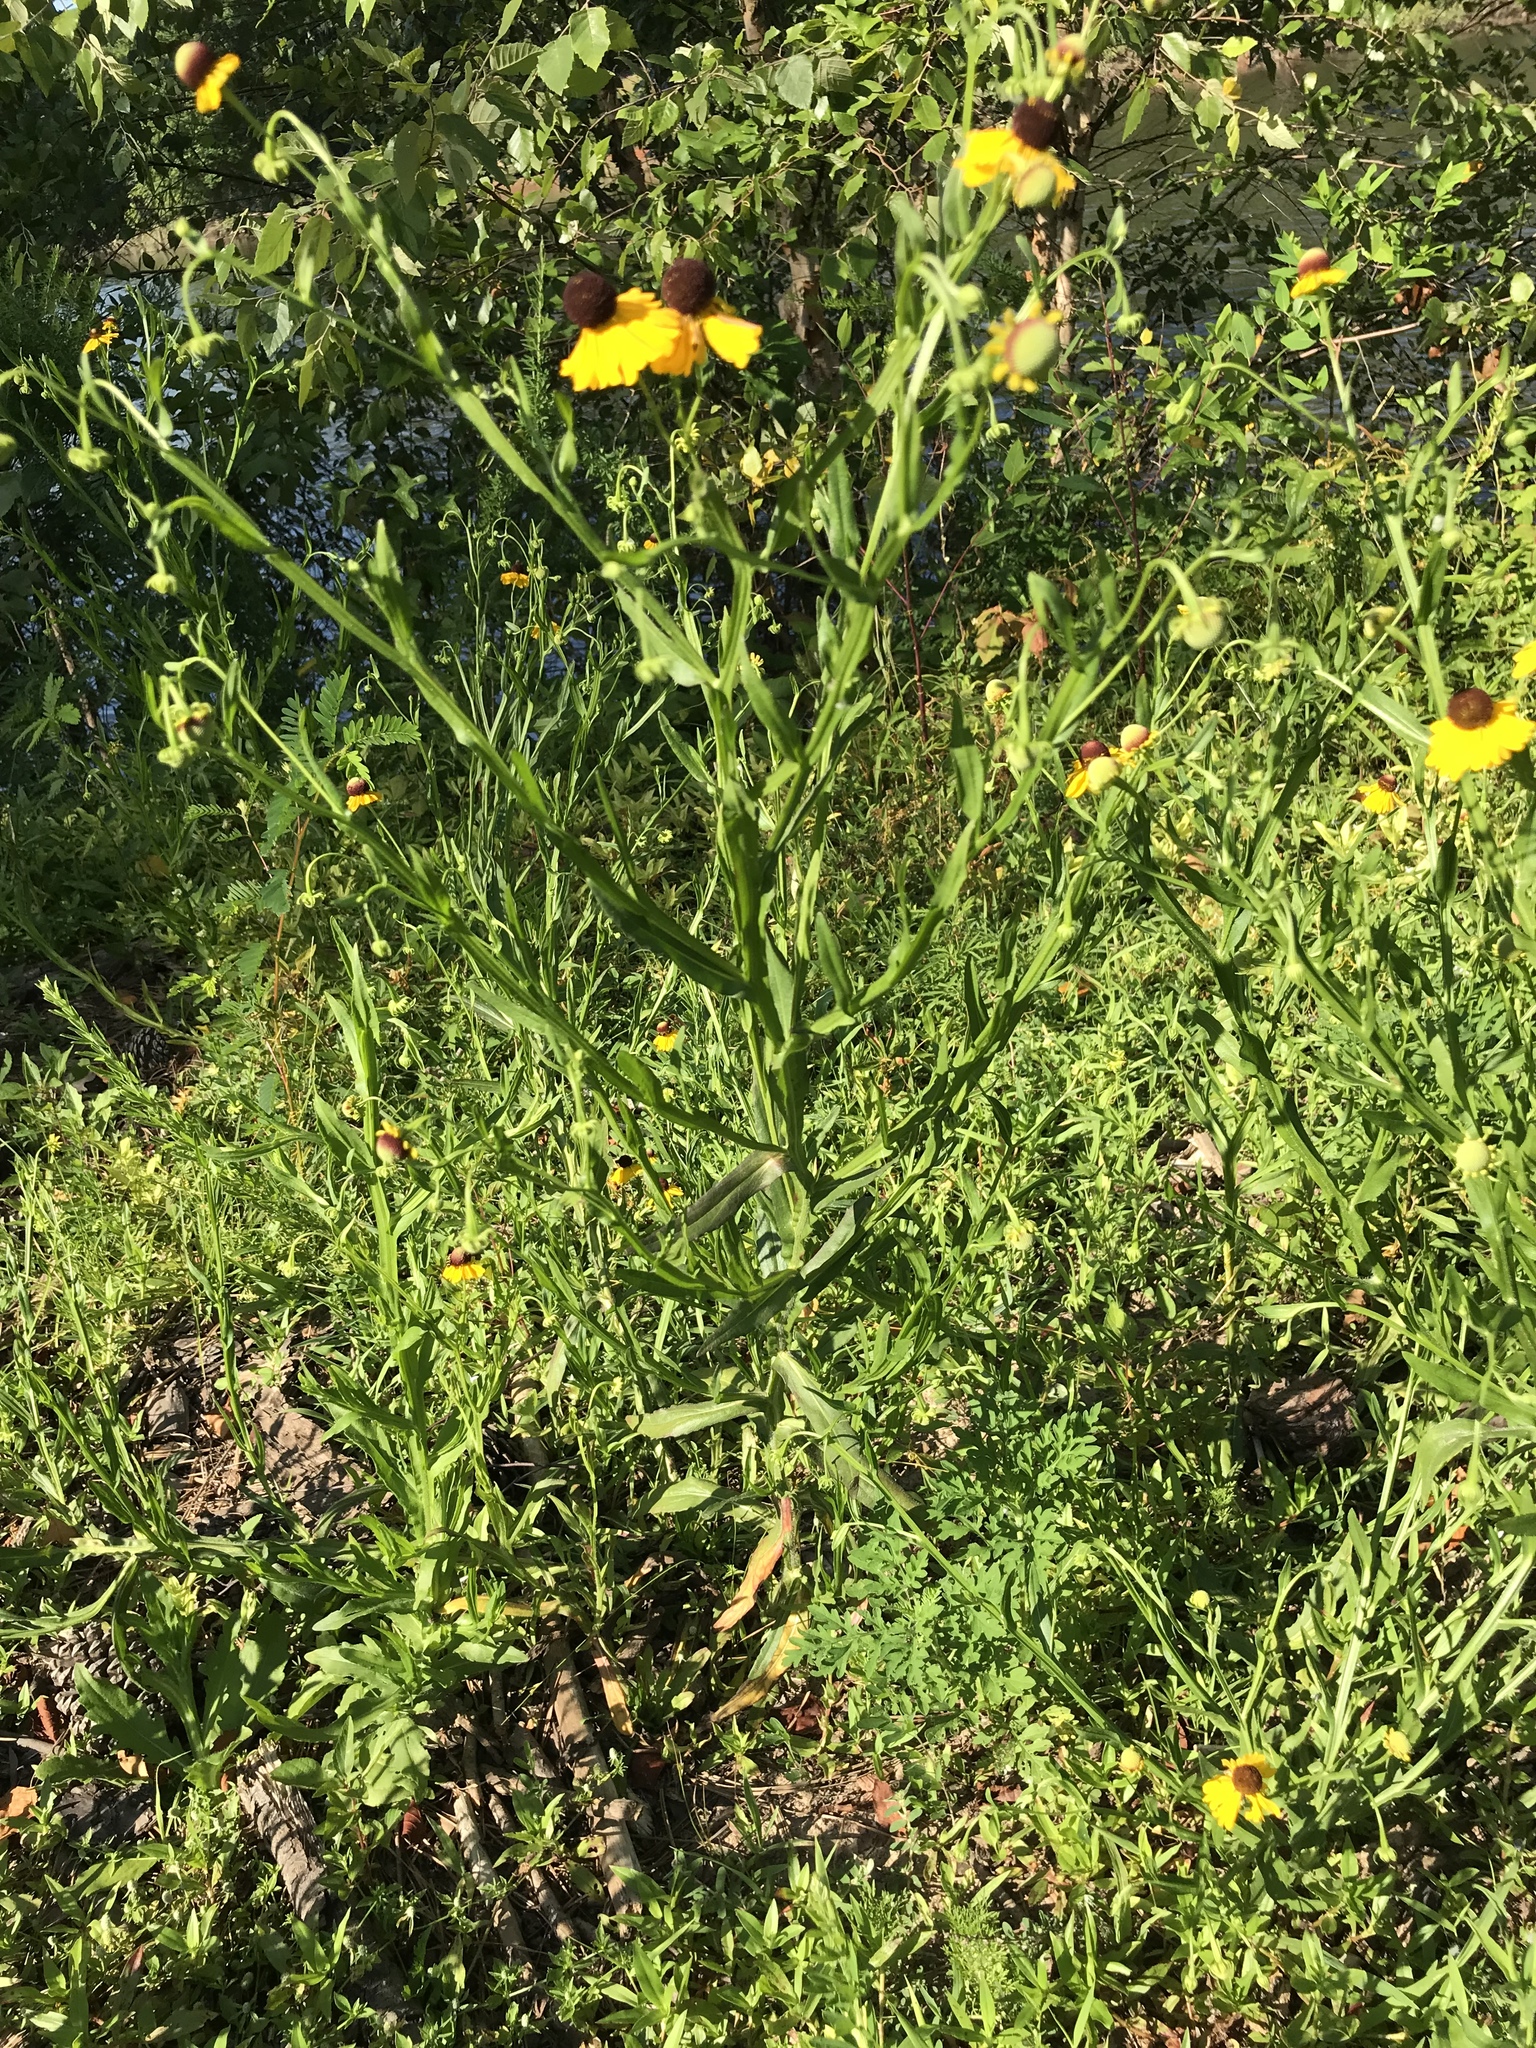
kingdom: Plantae
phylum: Tracheophyta
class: Magnoliopsida
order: Asterales
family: Asteraceae
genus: Helenium
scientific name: Helenium flexuosum
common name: Naked-flowered sneezeweed
